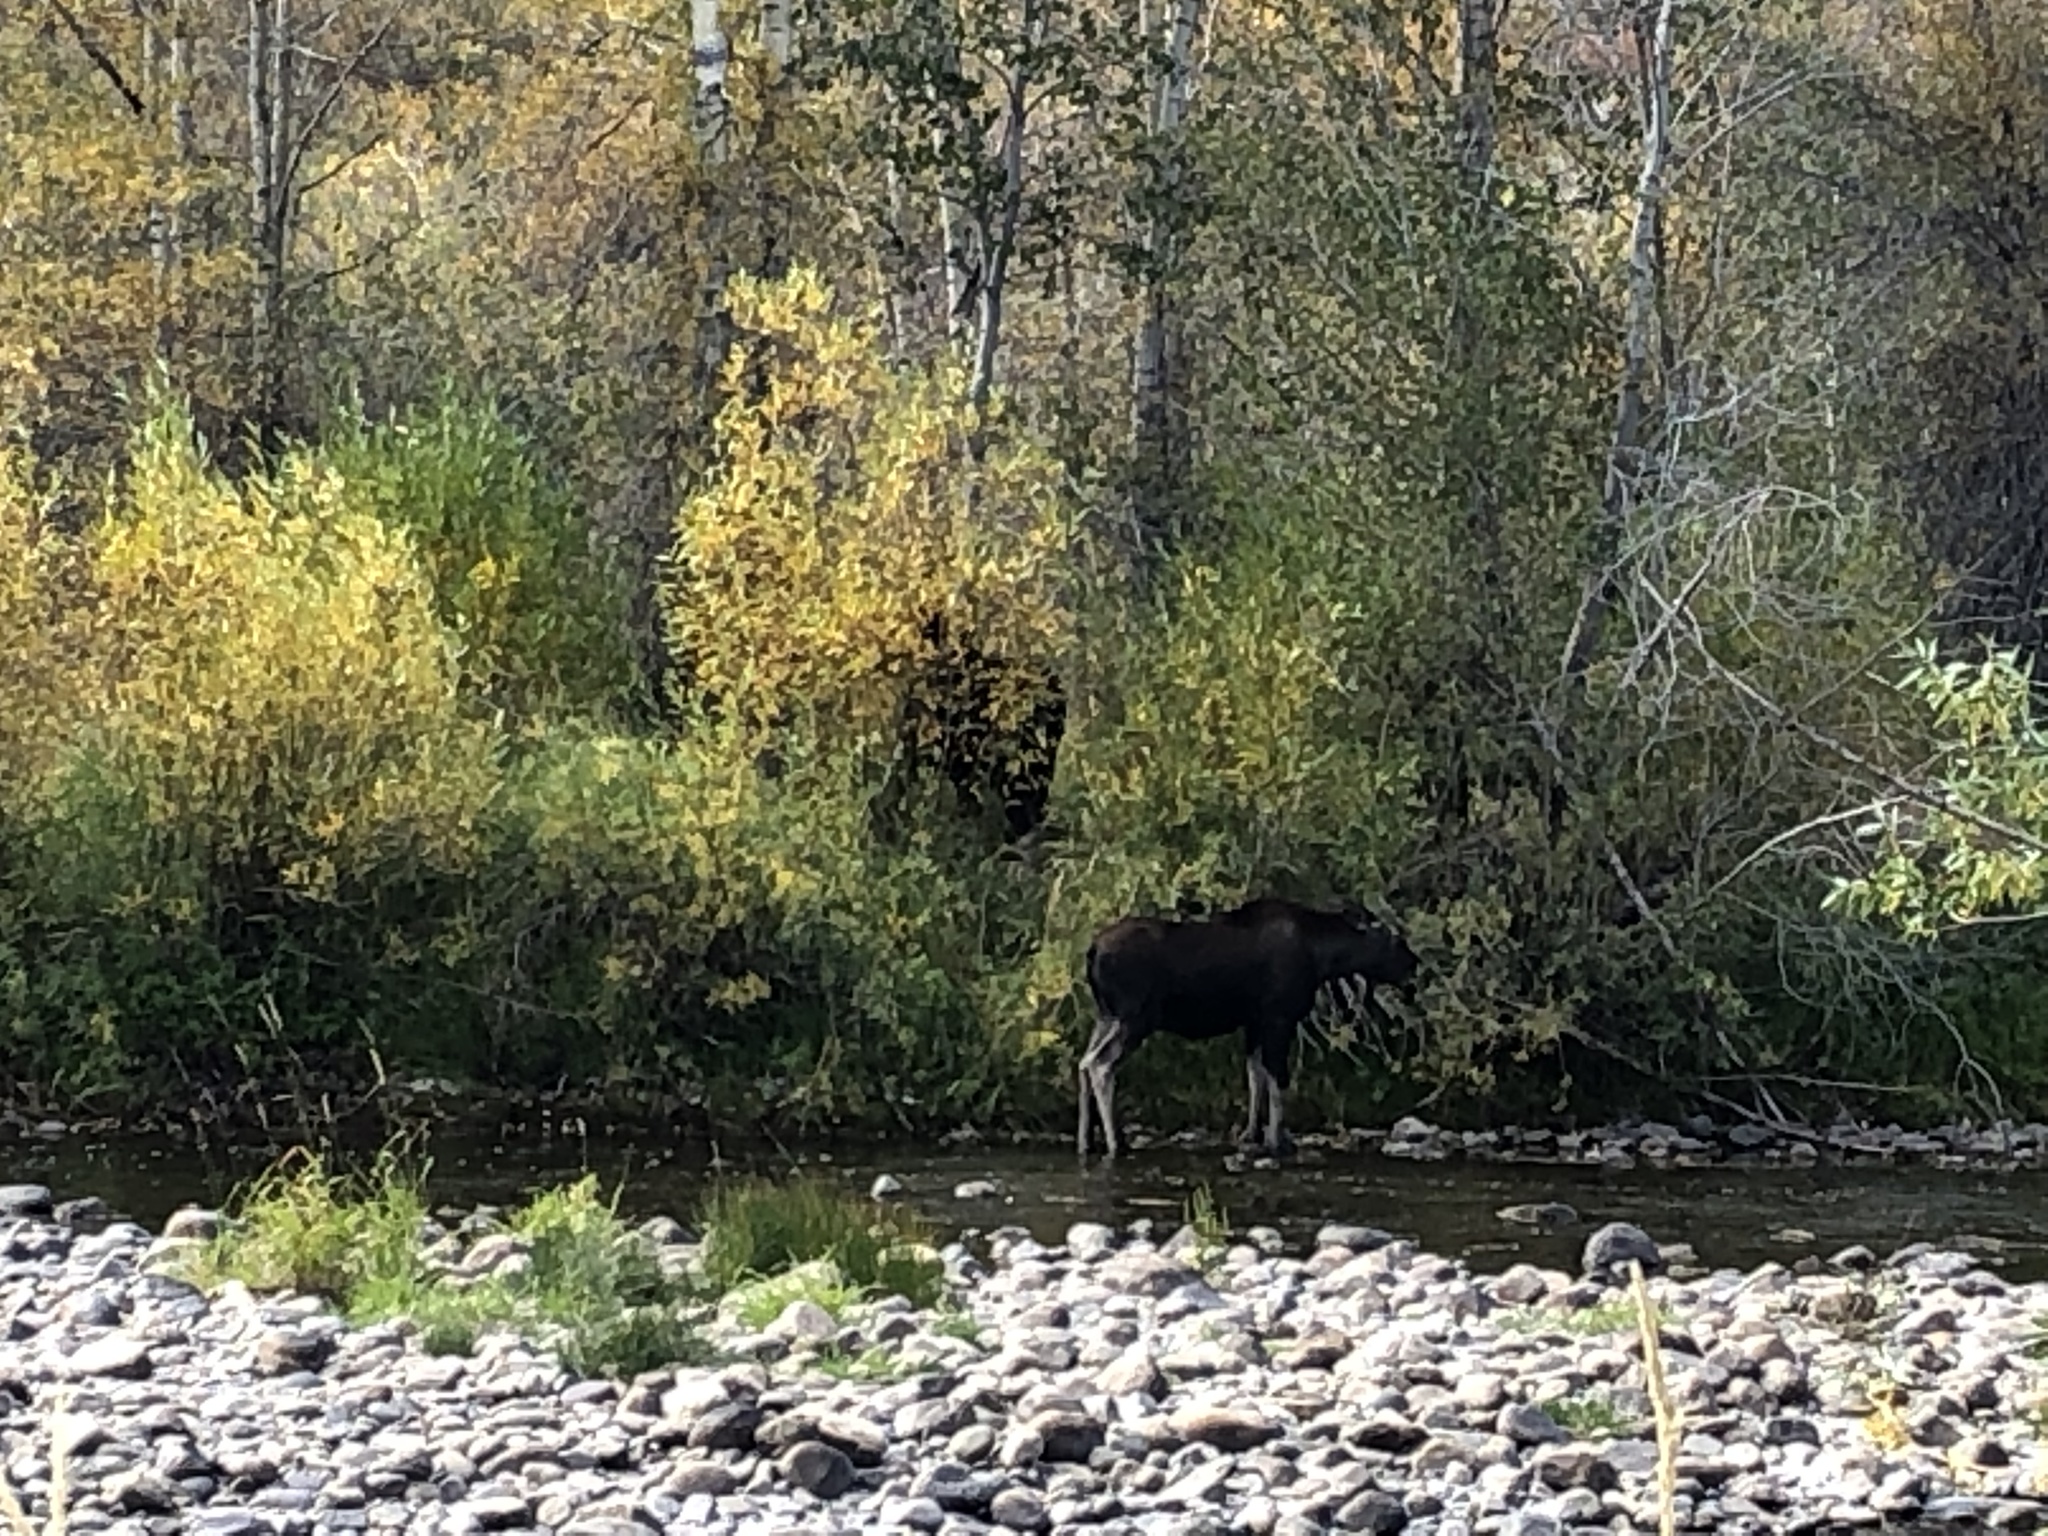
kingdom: Animalia
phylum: Chordata
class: Mammalia
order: Artiodactyla
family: Cervidae
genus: Alces
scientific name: Alces americanus
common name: Moose
